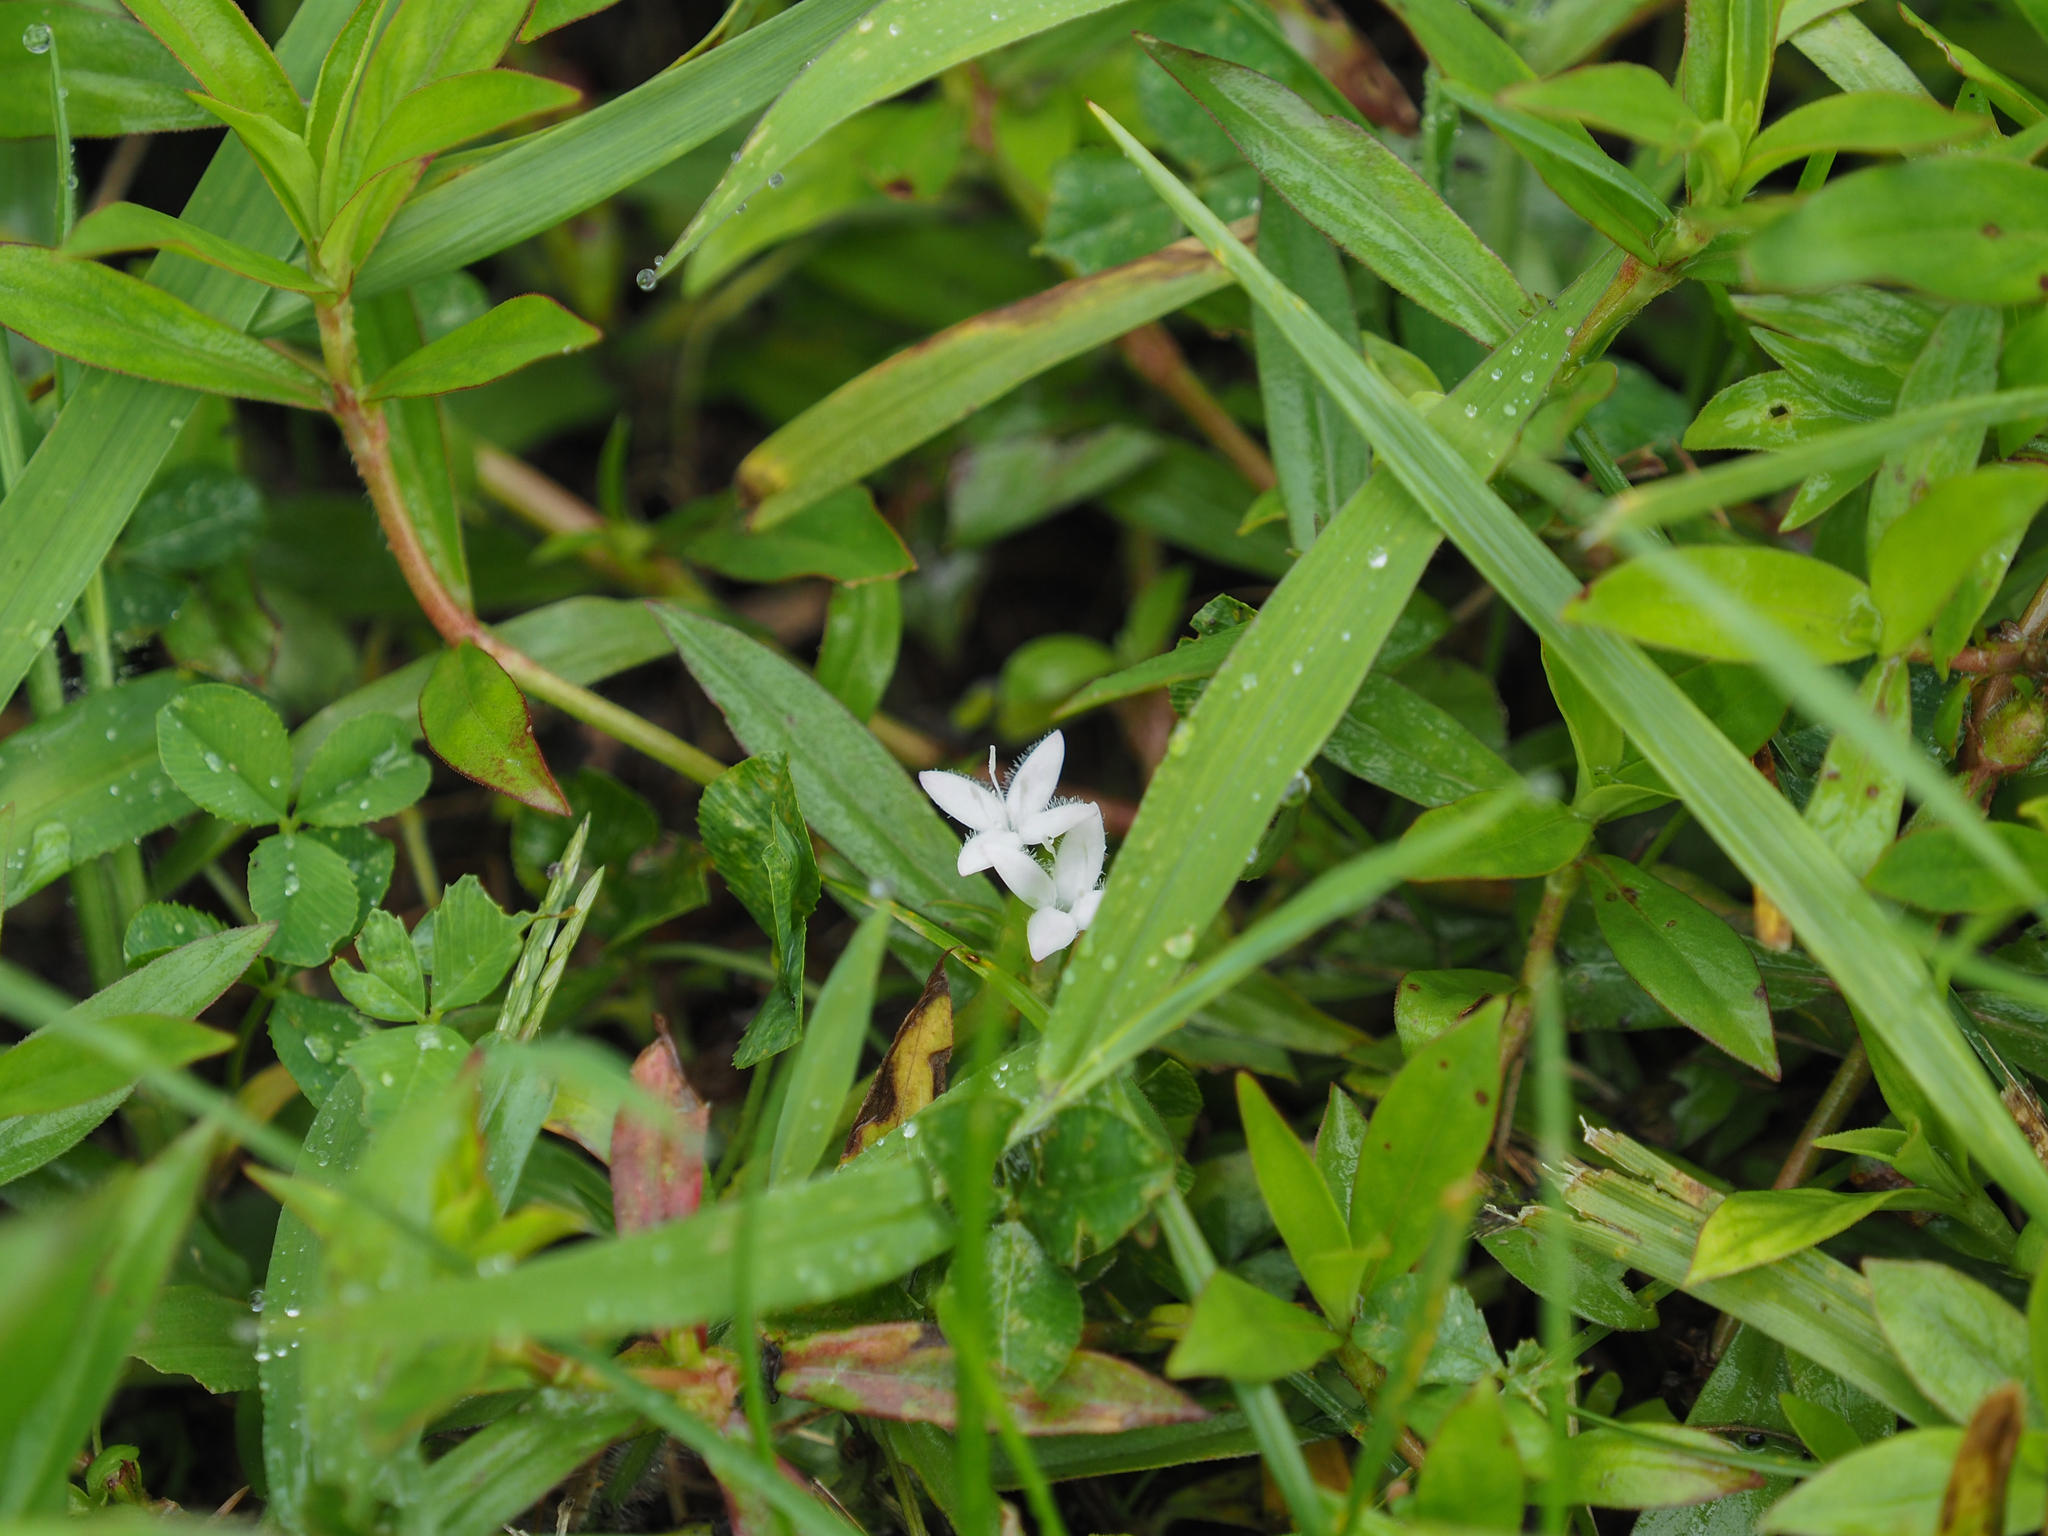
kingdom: Plantae
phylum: Tracheophyta
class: Magnoliopsida
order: Gentianales
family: Rubiaceae
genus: Diodia
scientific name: Diodia virginiana
